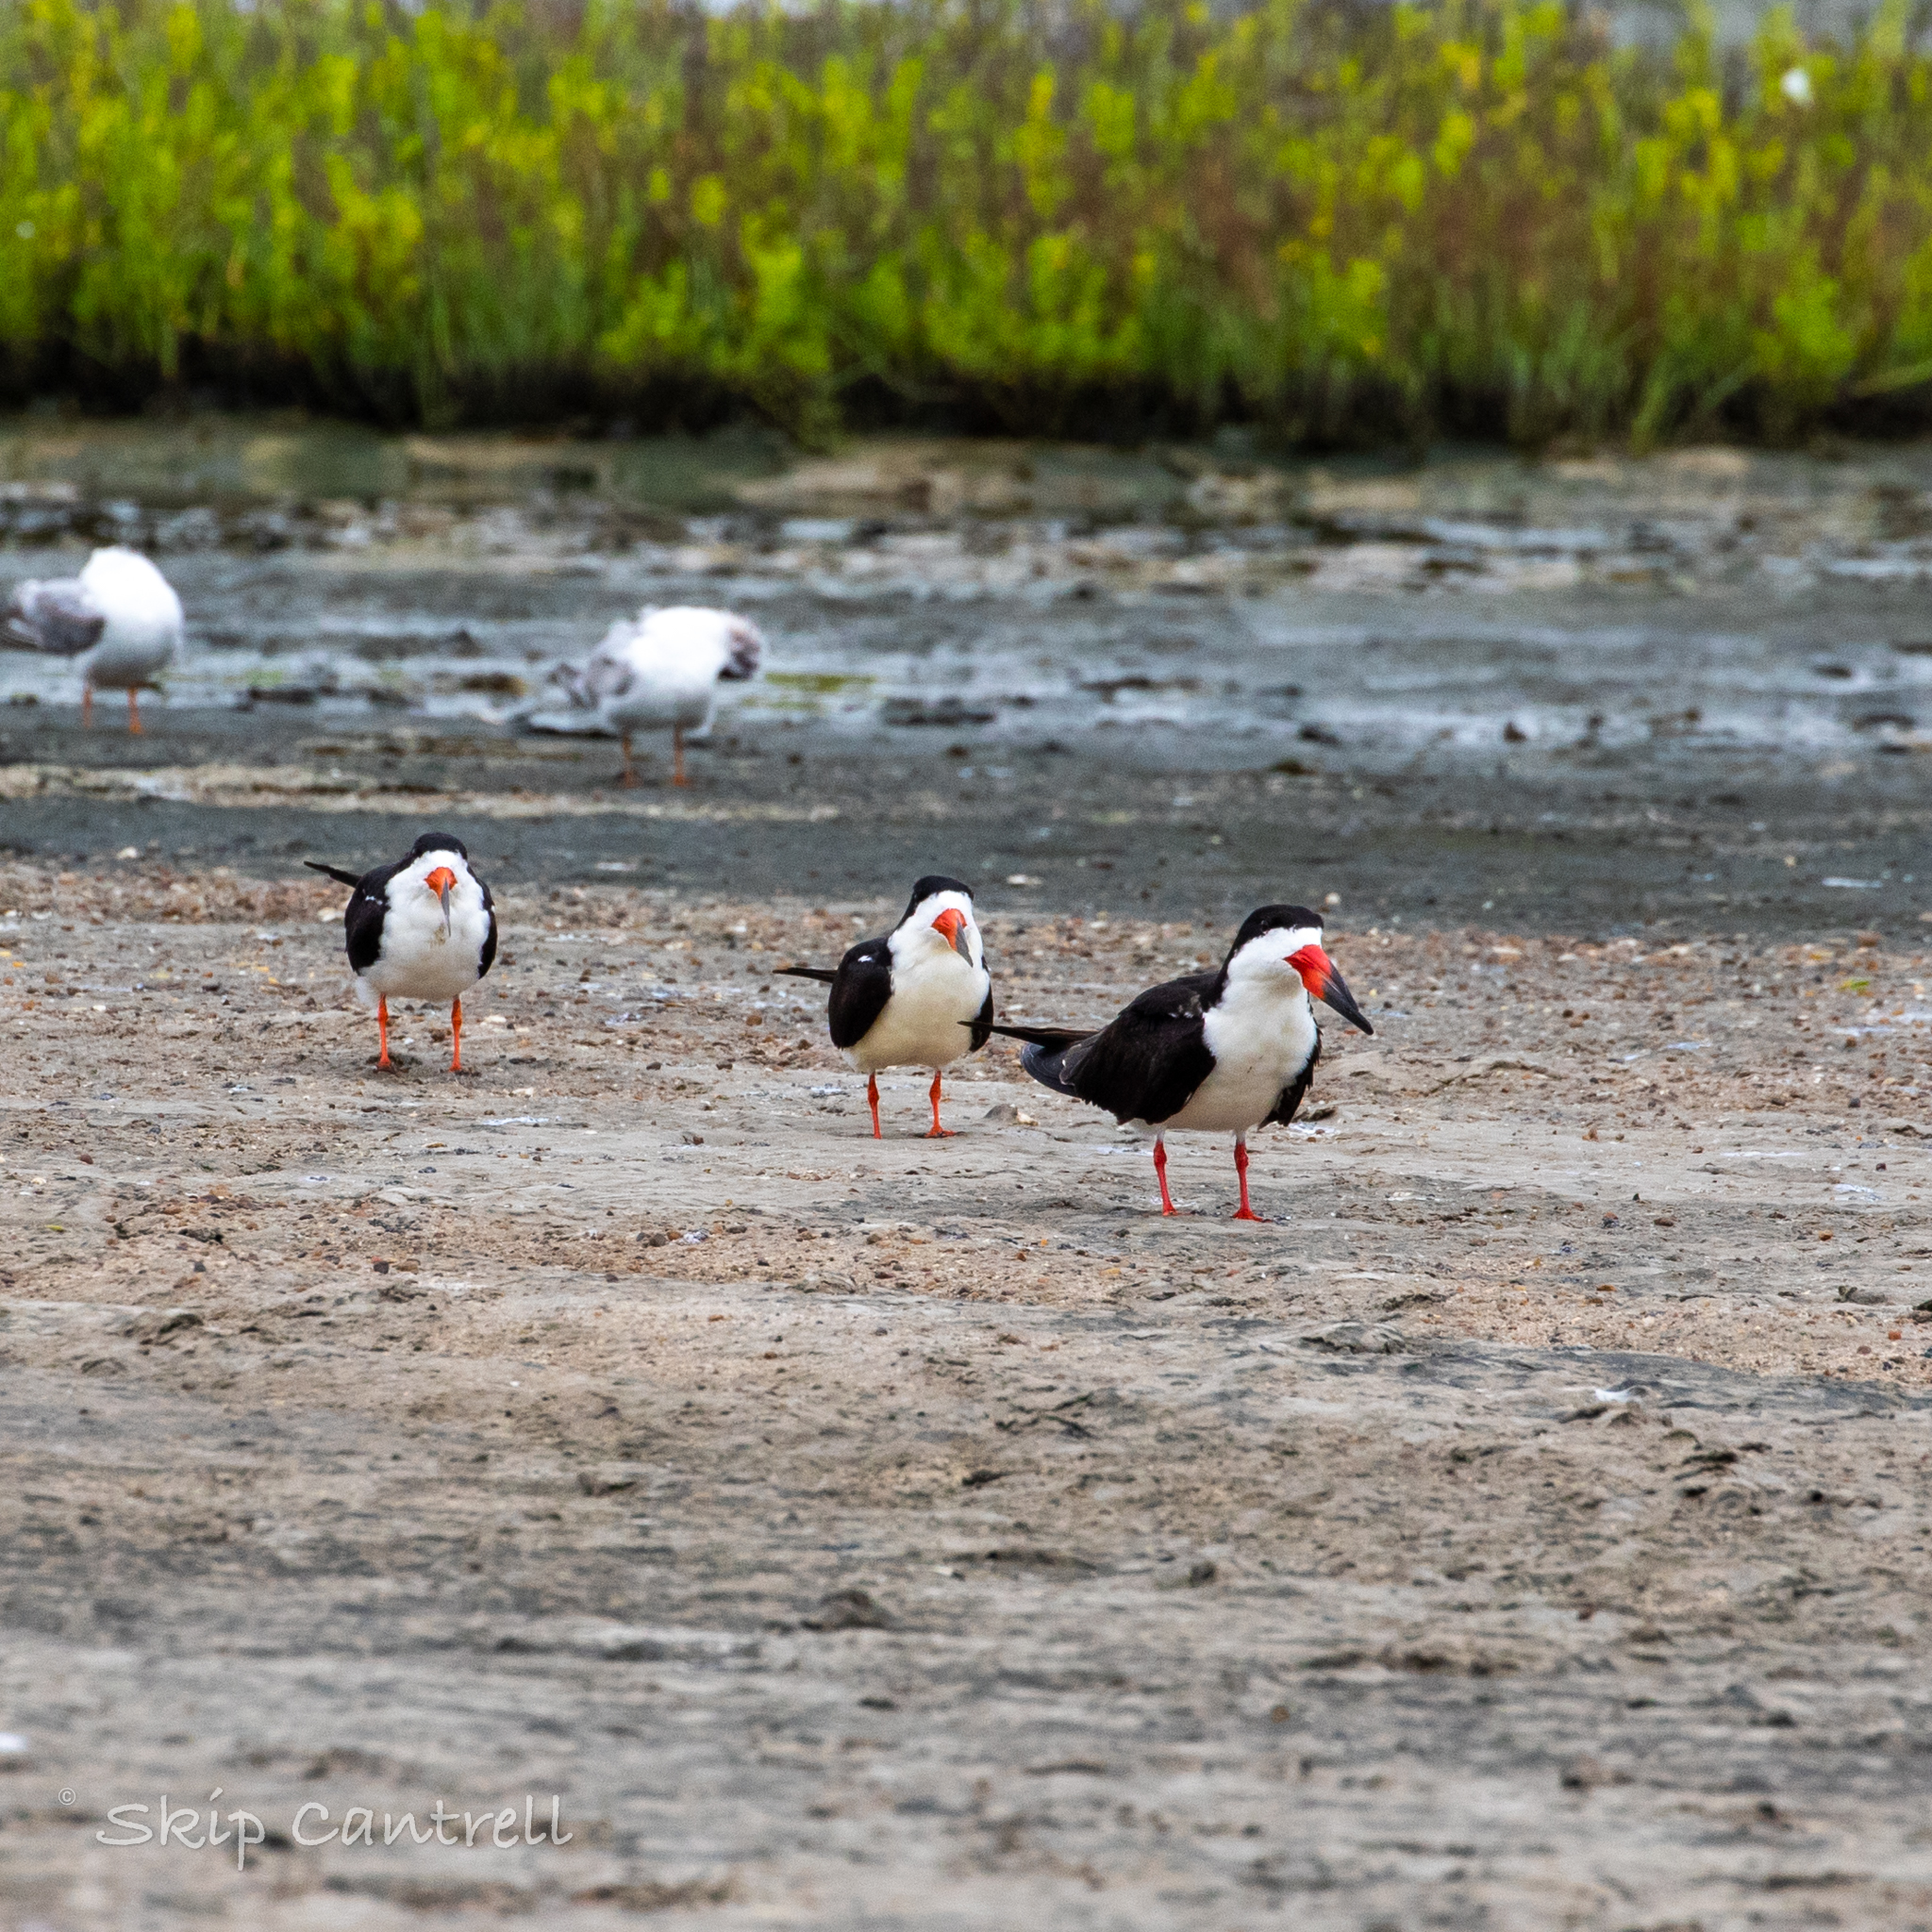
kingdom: Animalia
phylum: Chordata
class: Aves
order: Charadriiformes
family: Laridae
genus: Rynchops
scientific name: Rynchops niger
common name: Black skimmer
